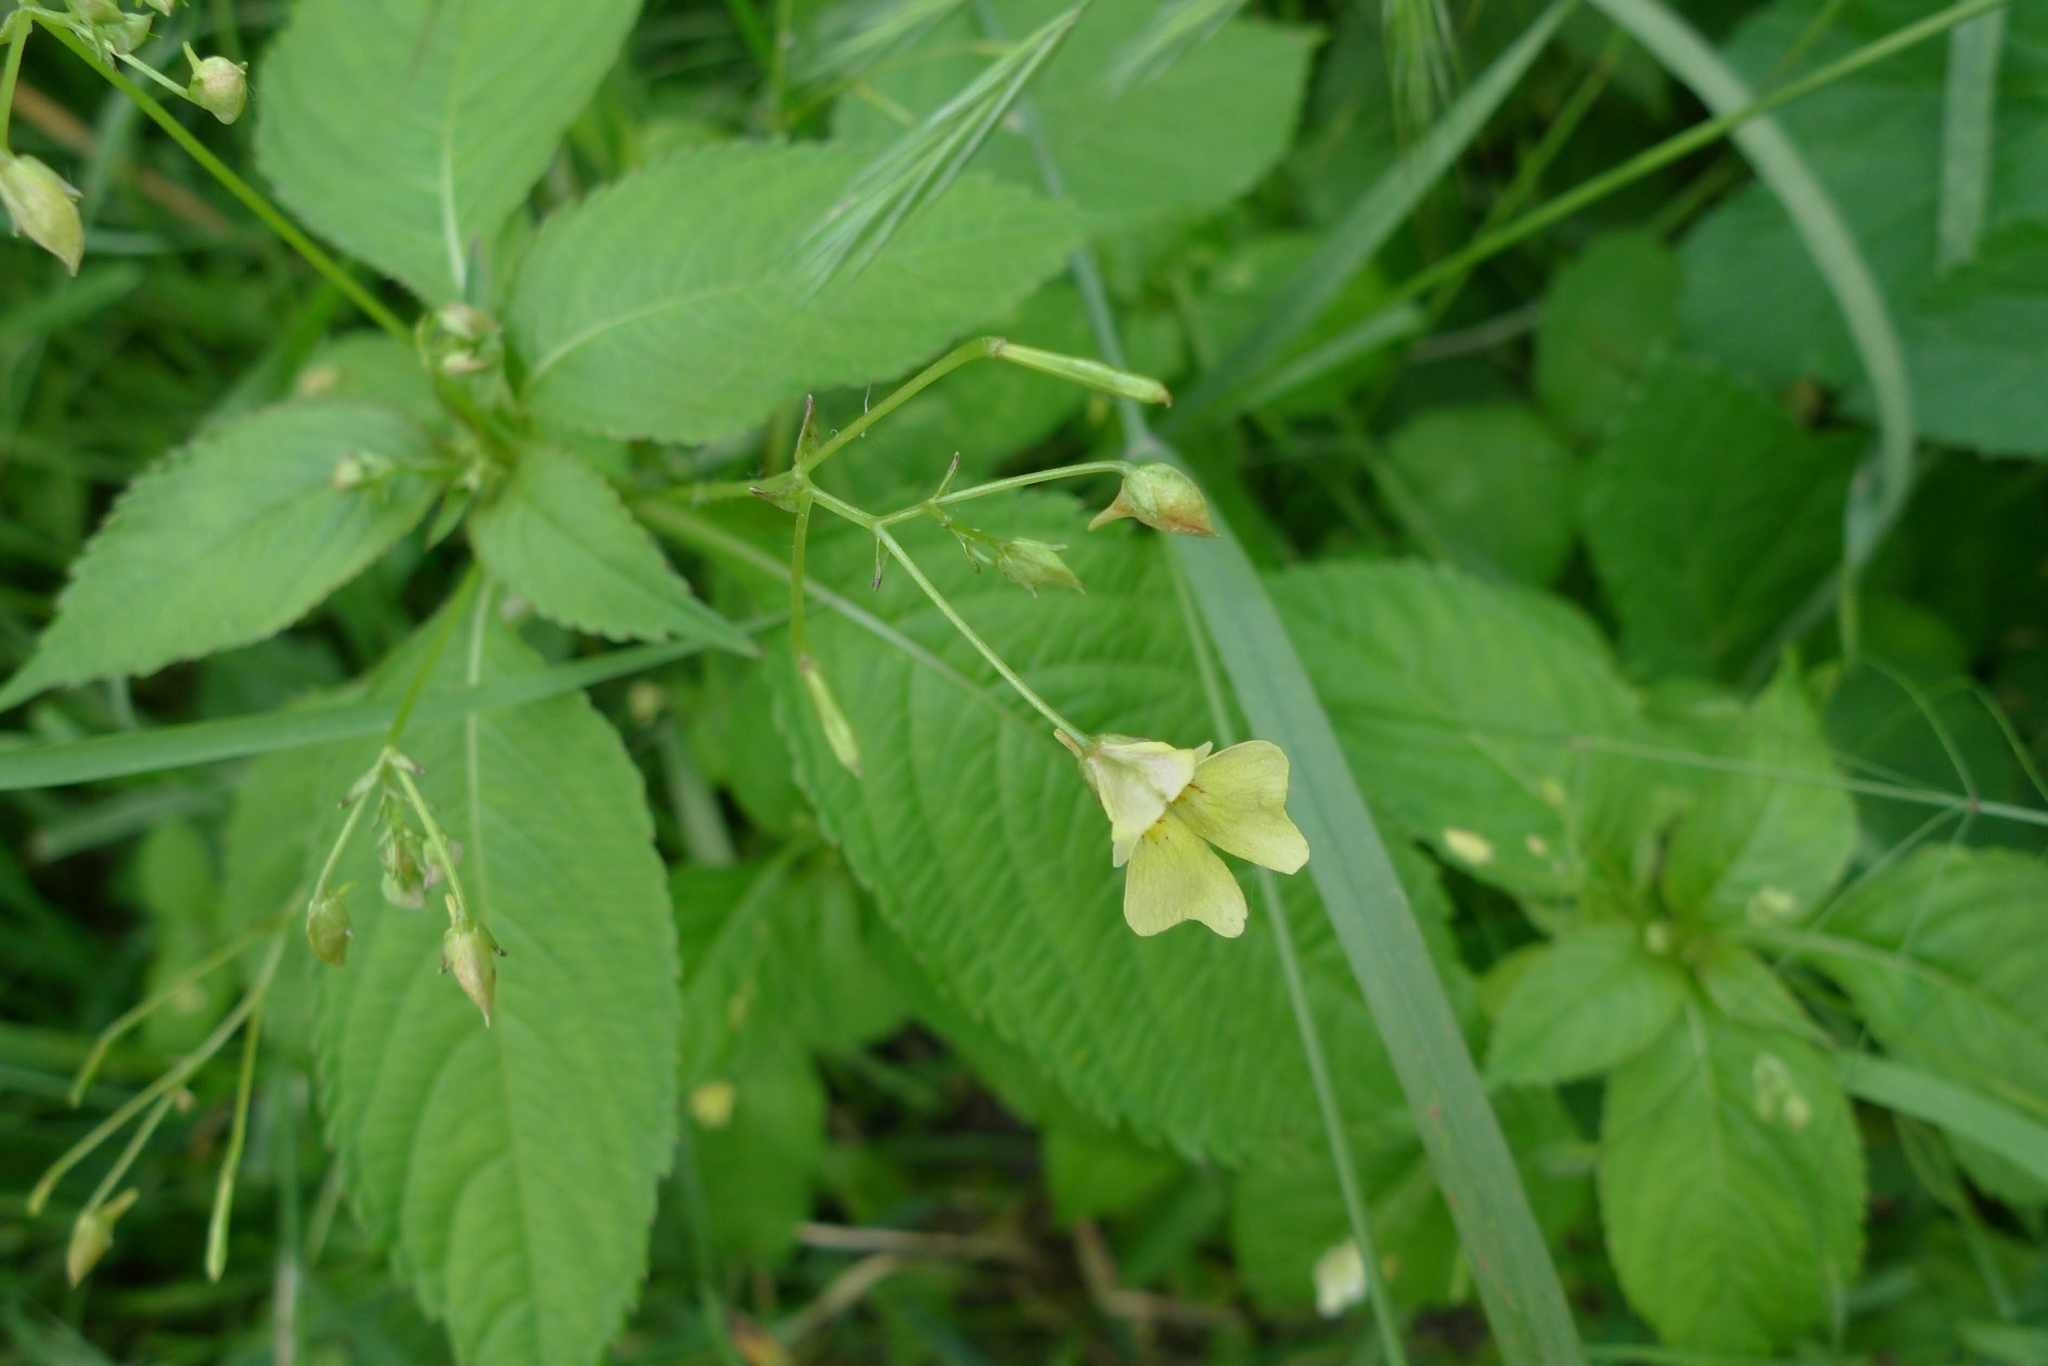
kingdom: Plantae
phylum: Tracheophyta
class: Magnoliopsida
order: Ericales
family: Balsaminaceae
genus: Impatiens
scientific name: Impatiens parviflora
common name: Small balsam
